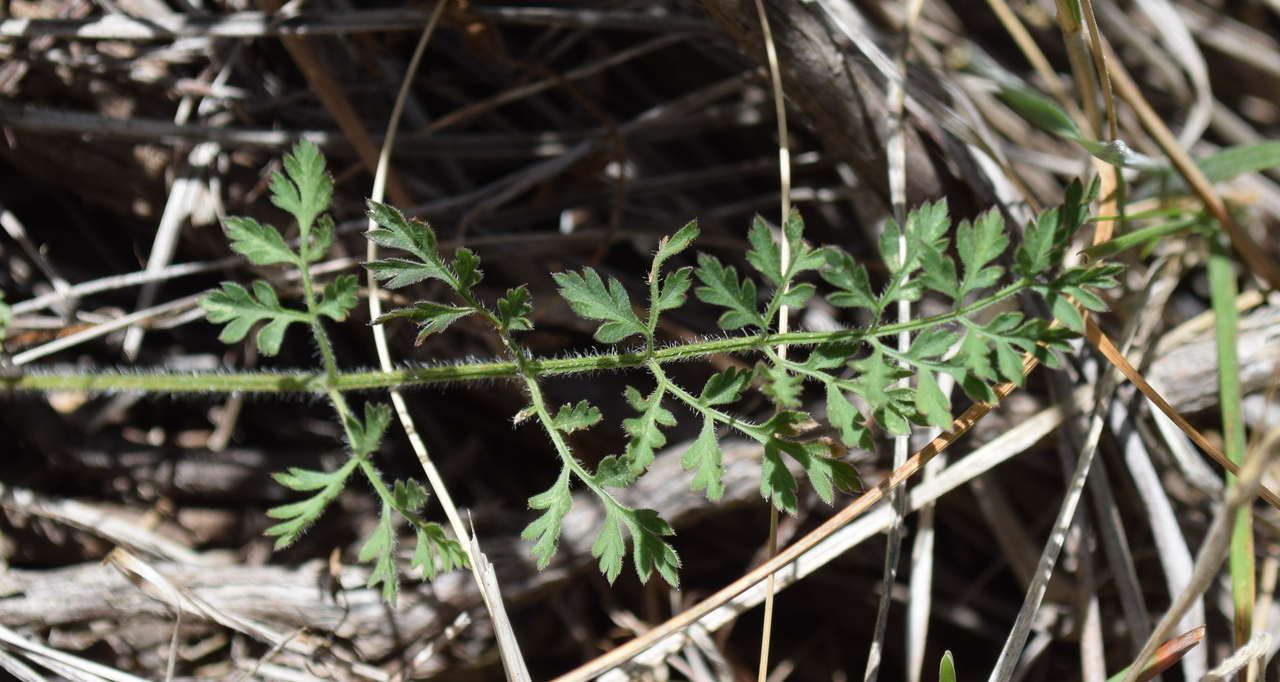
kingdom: Plantae
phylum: Tracheophyta
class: Magnoliopsida
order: Apiales
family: Apiaceae
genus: Daucus
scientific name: Daucus carota
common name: Wild carrot
